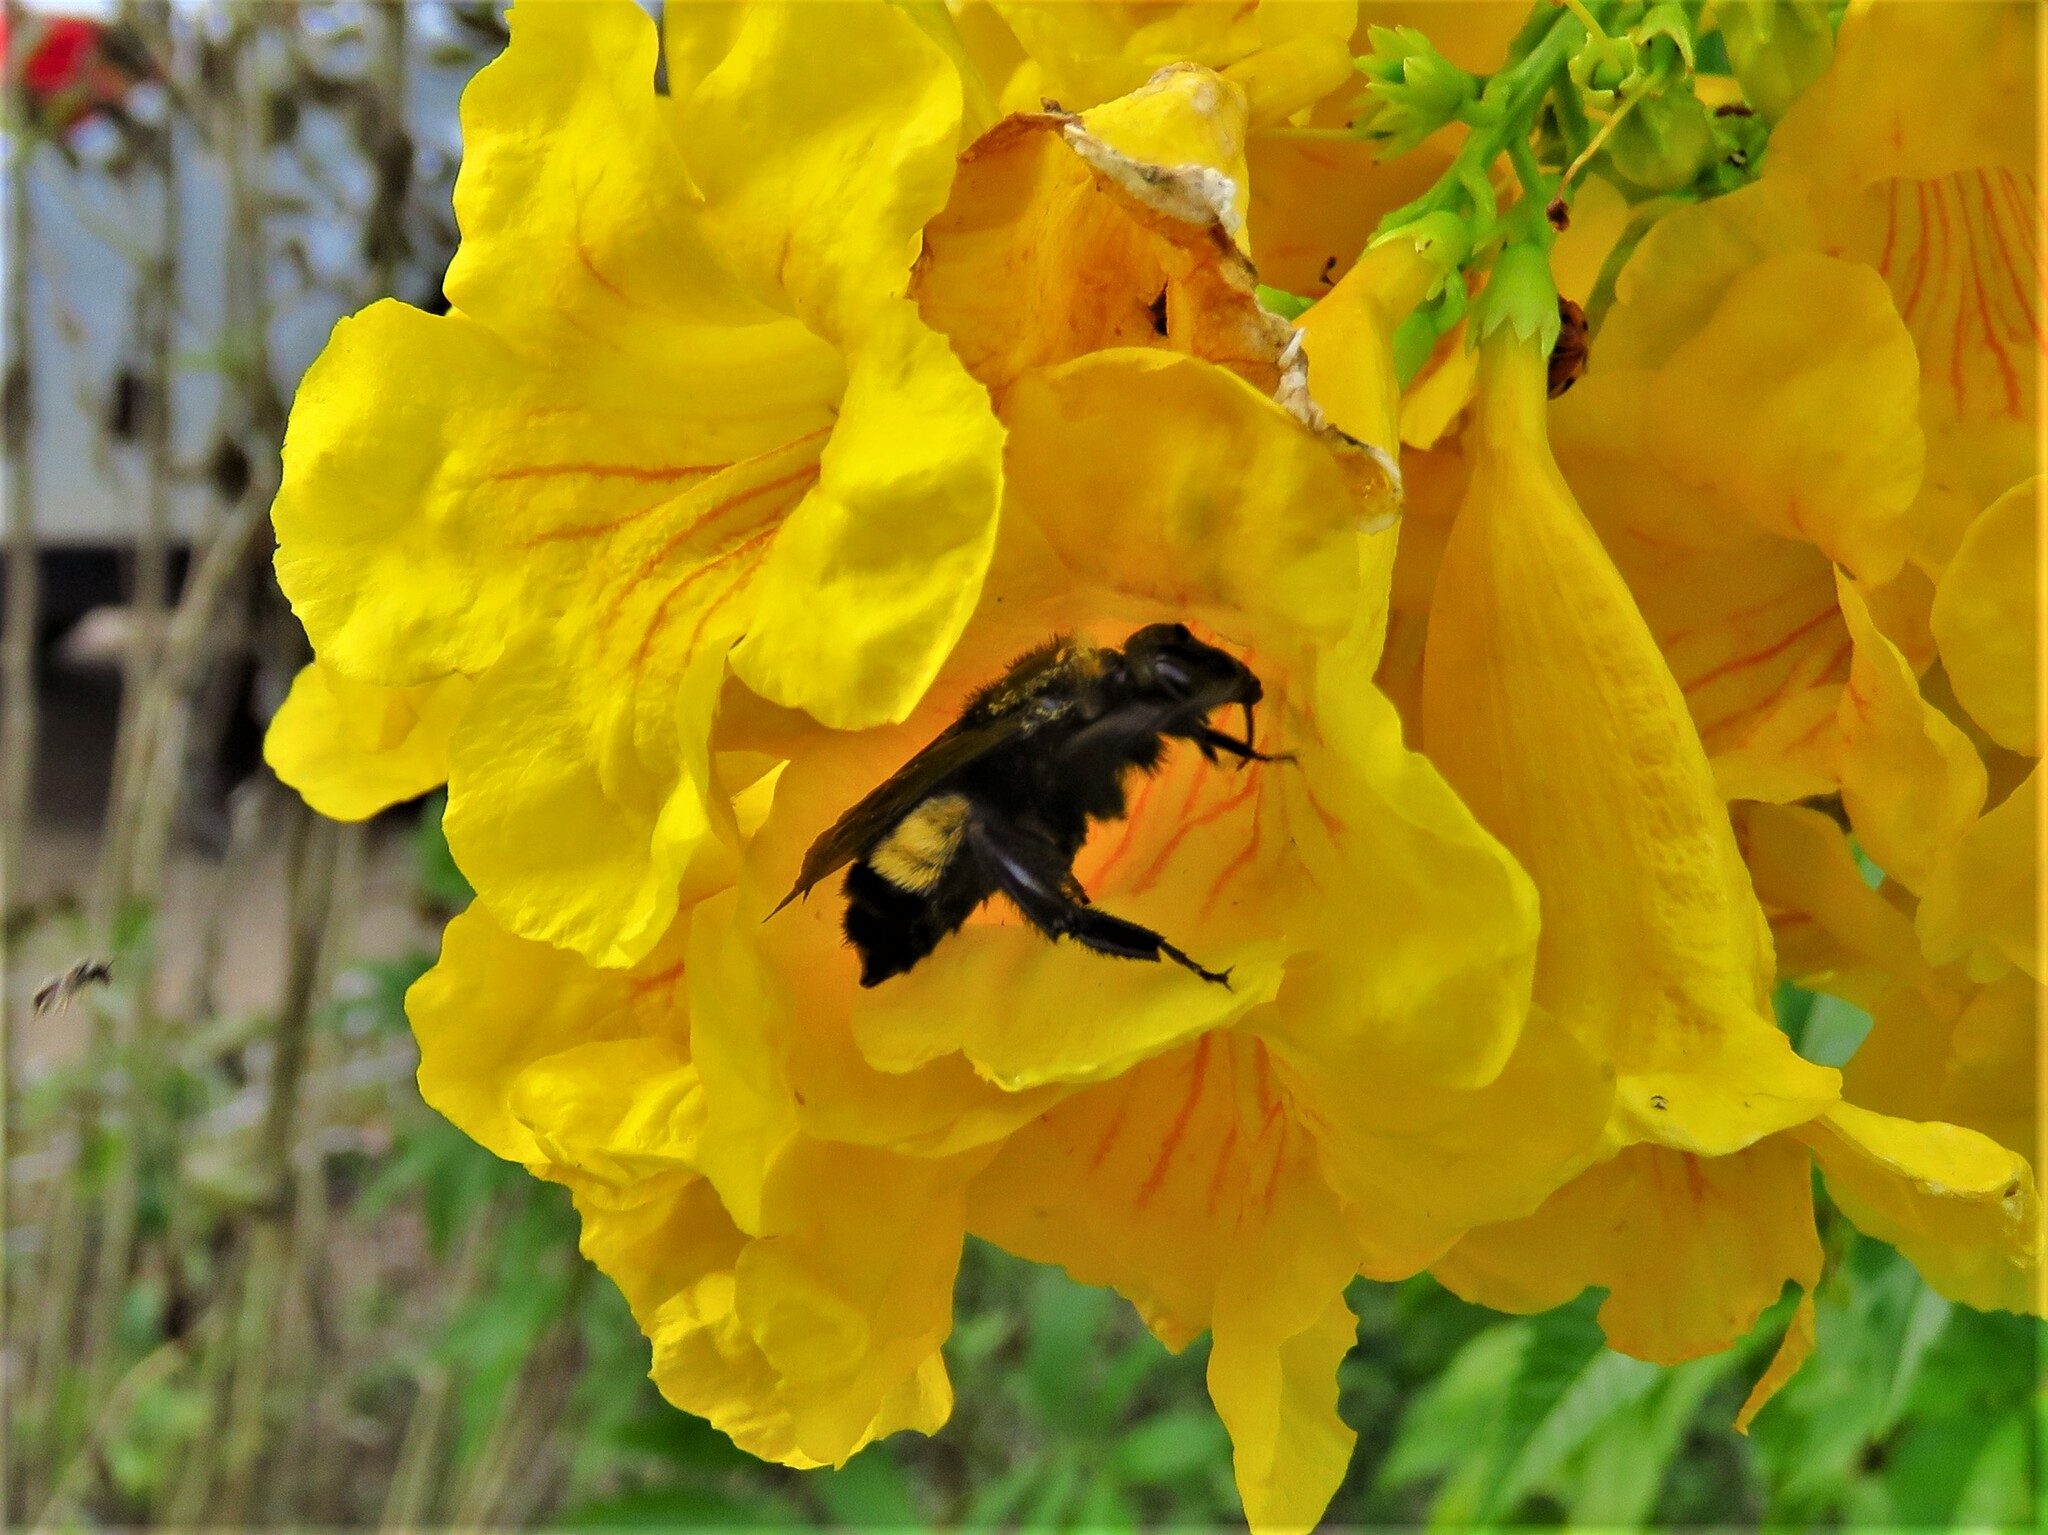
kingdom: Animalia
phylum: Arthropoda
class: Insecta
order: Hymenoptera
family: Apidae
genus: Bombus
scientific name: Bombus pensylvanicus
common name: Bumble bee
